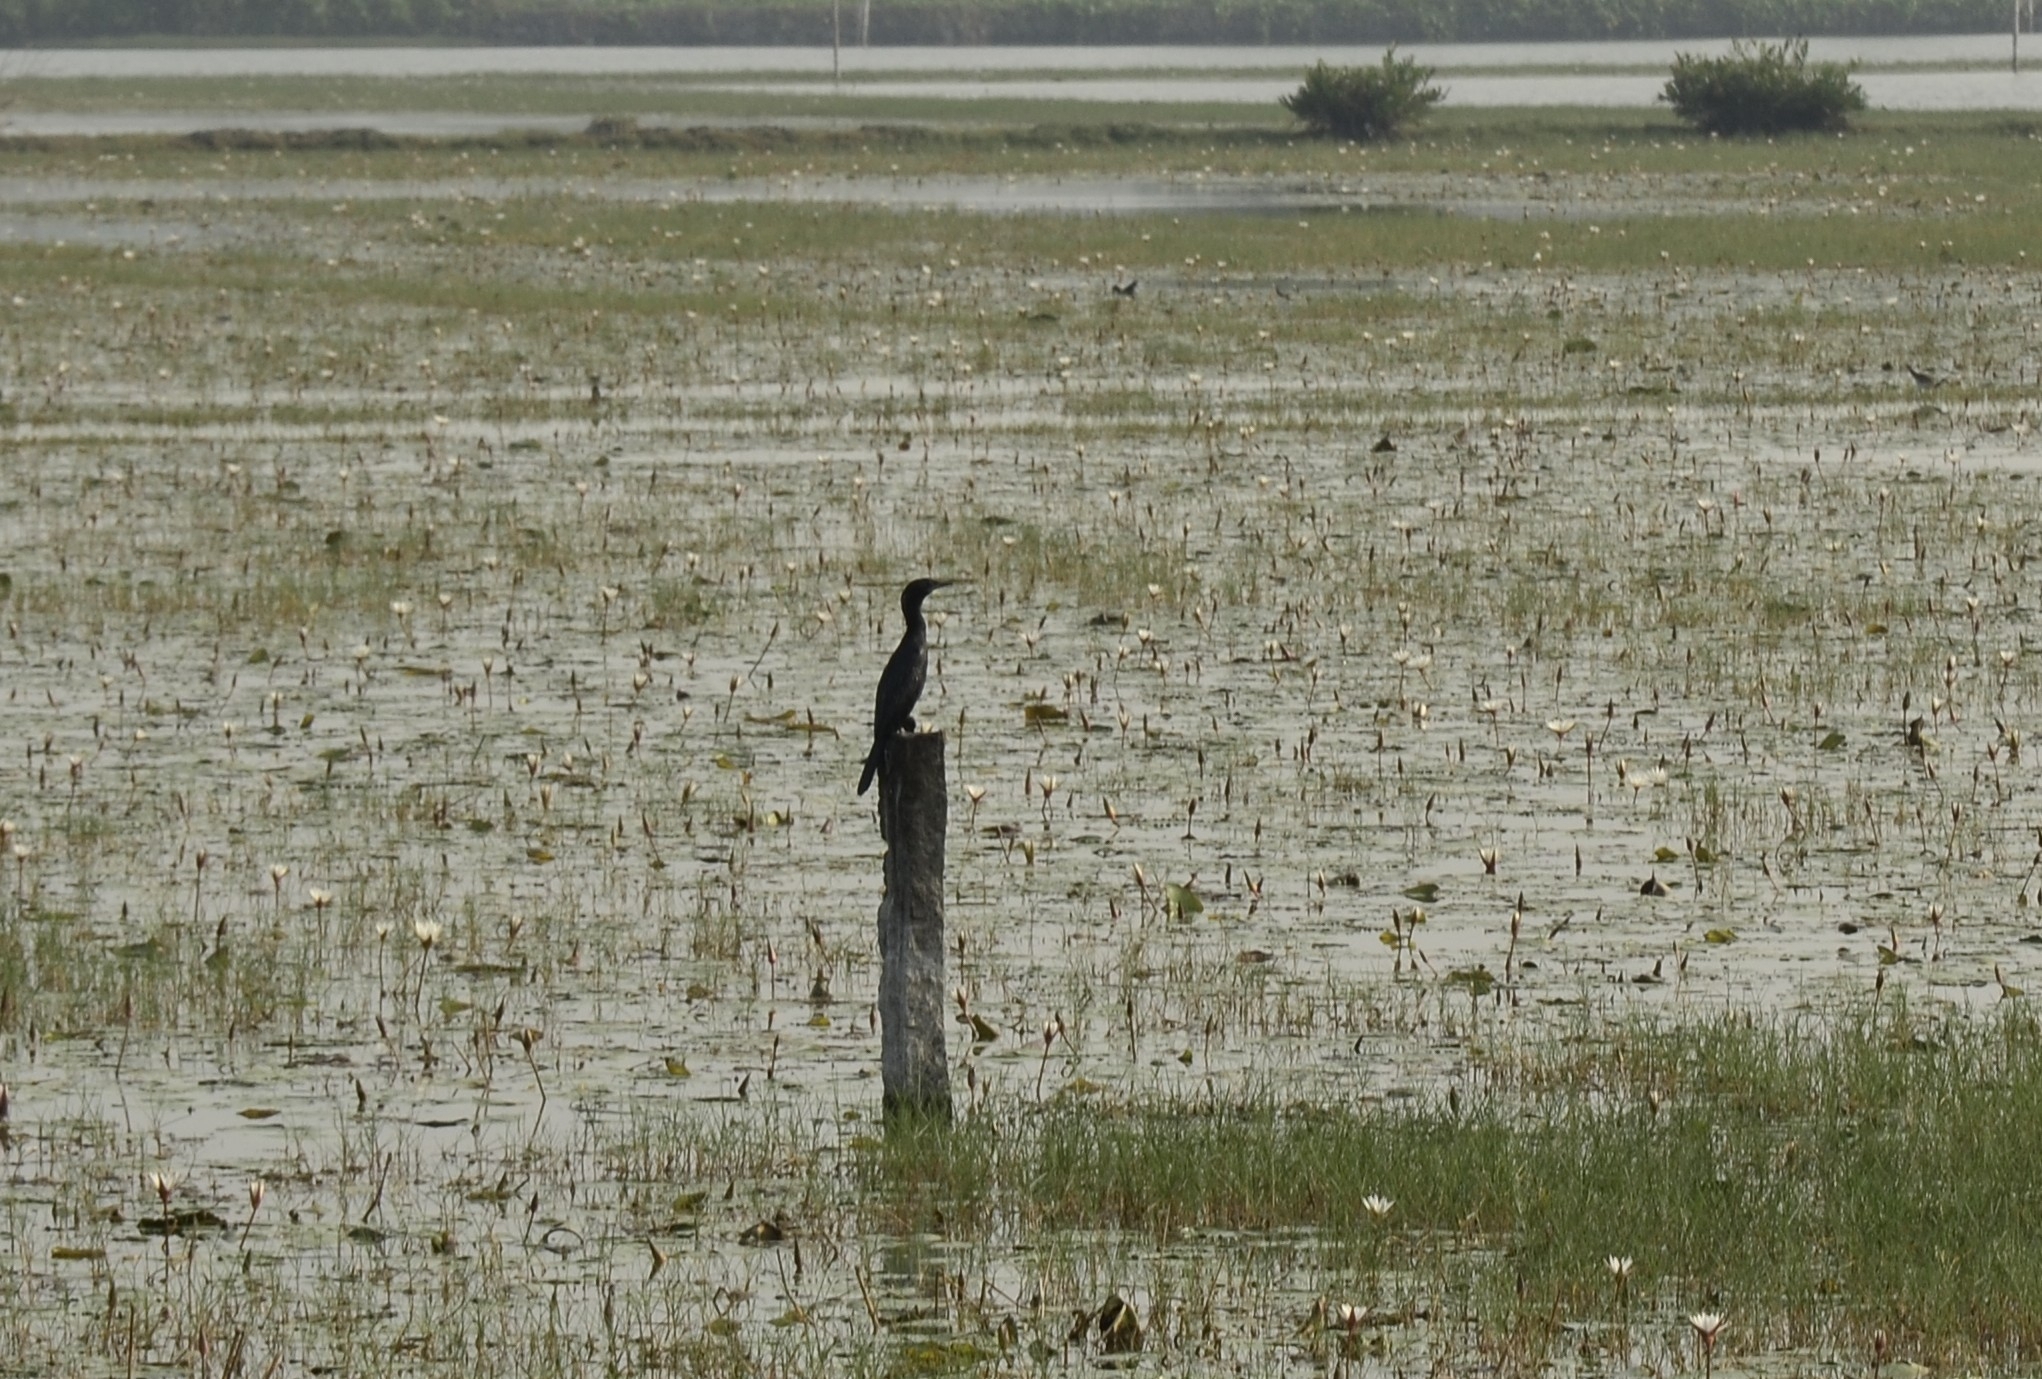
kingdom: Animalia
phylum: Chordata
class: Aves
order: Suliformes
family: Phalacrocoracidae
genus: Microcarbo
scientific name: Microcarbo niger
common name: Little cormorant
